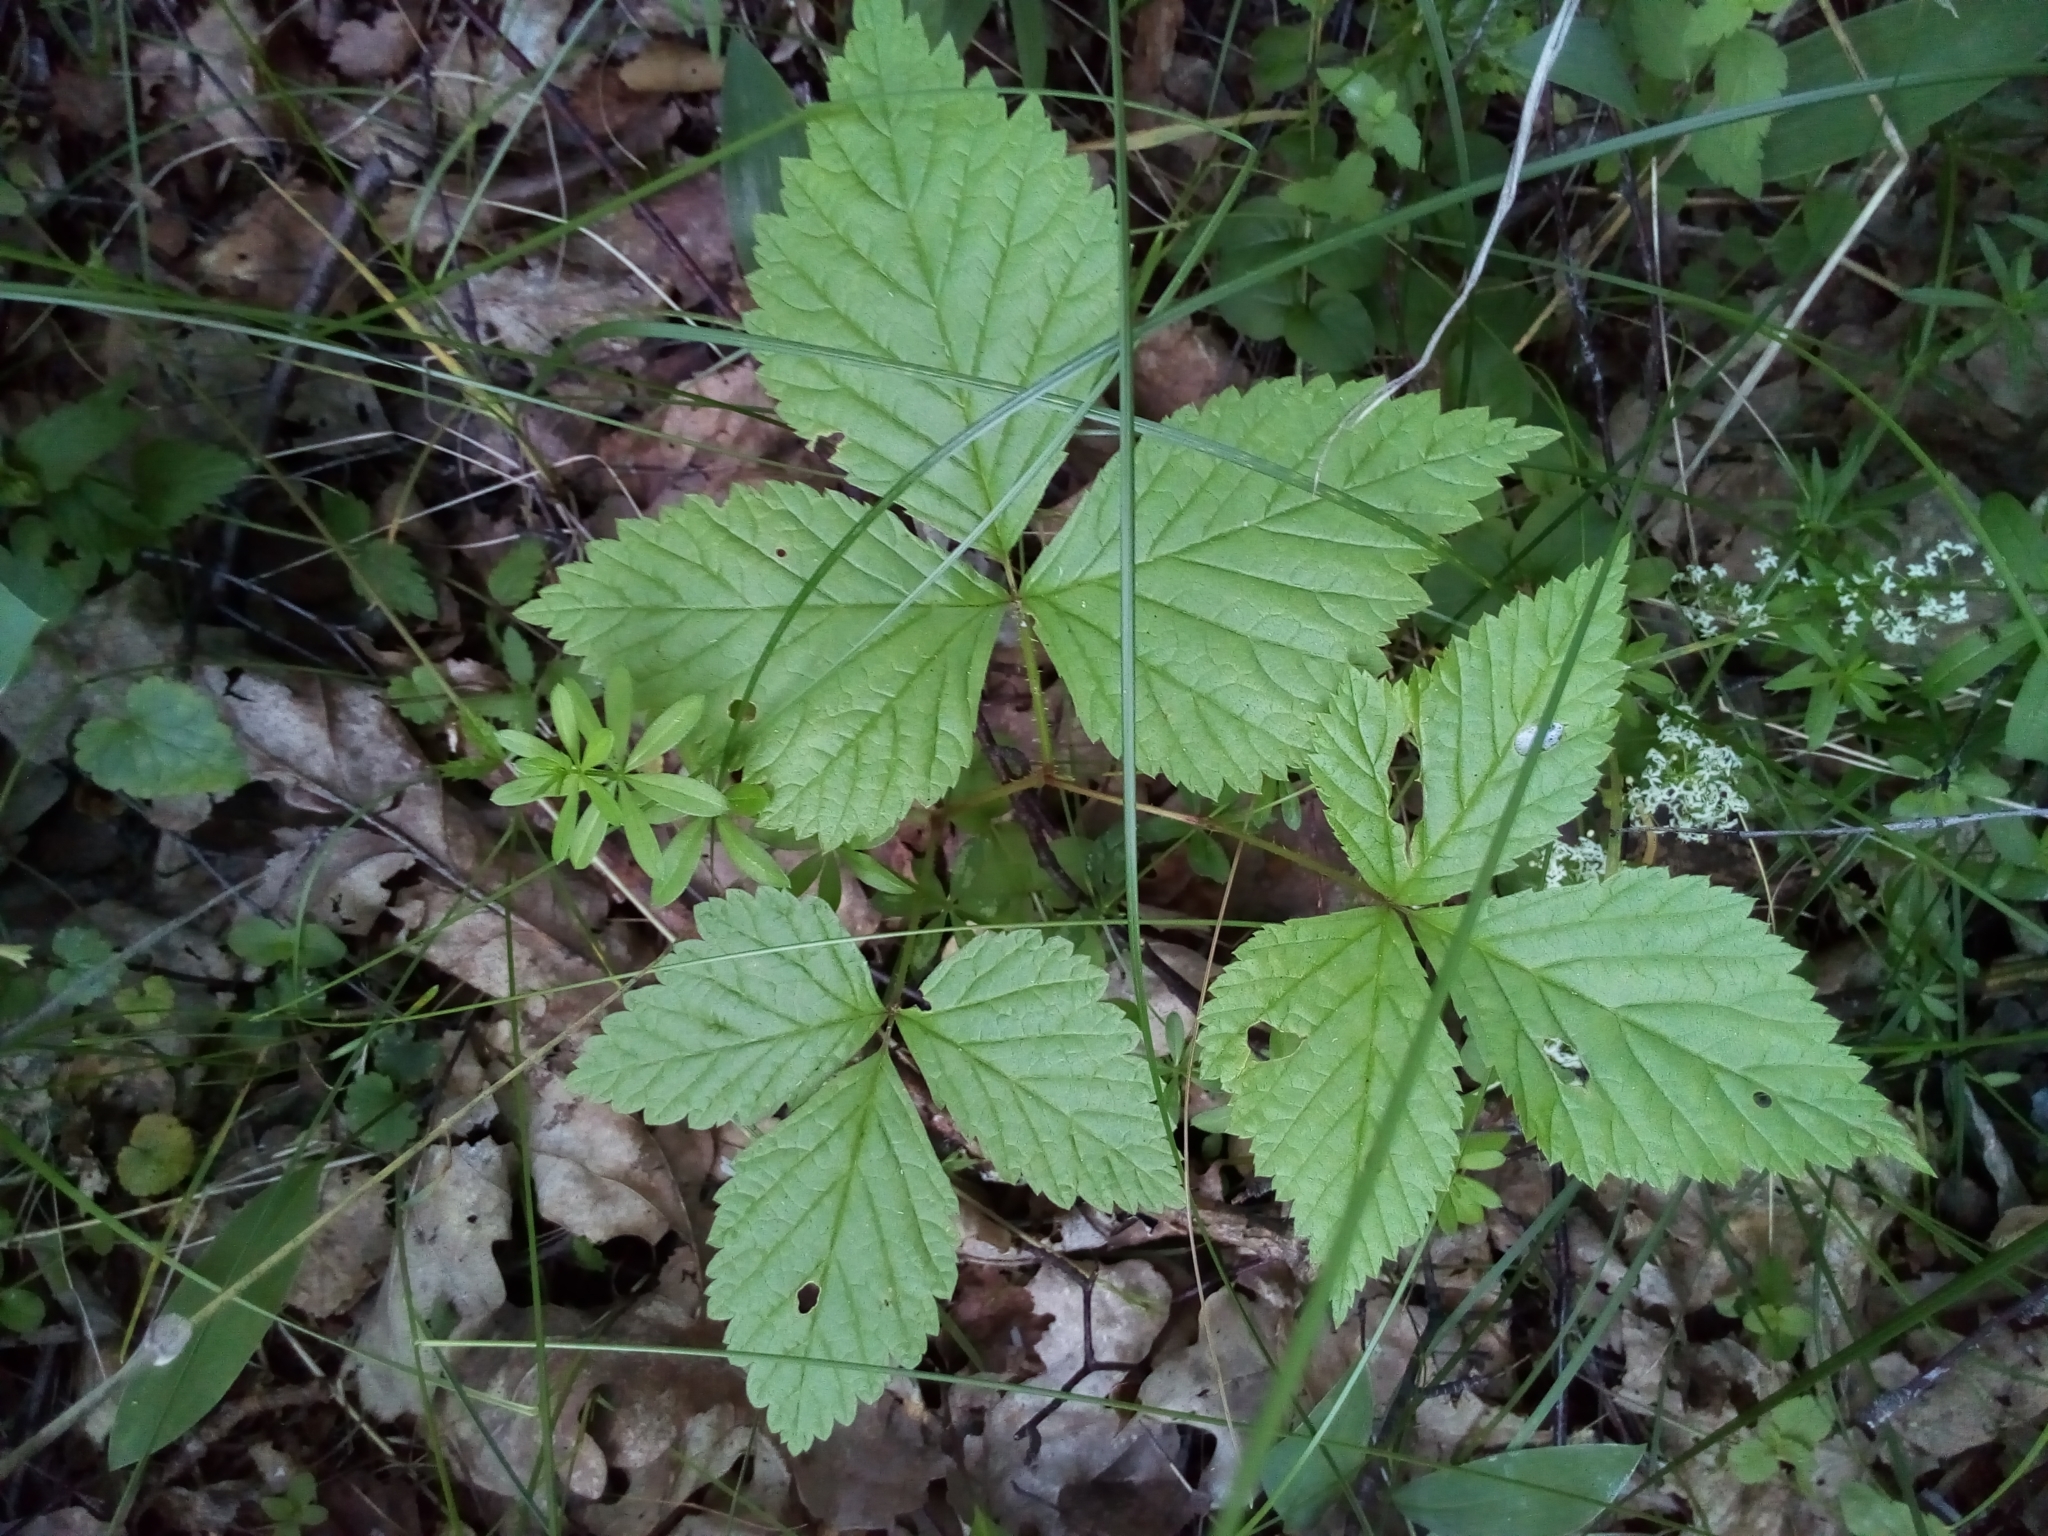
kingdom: Plantae
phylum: Tracheophyta
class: Magnoliopsida
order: Rosales
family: Rosaceae
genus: Rubus
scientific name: Rubus saxatilis
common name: Stone bramble
